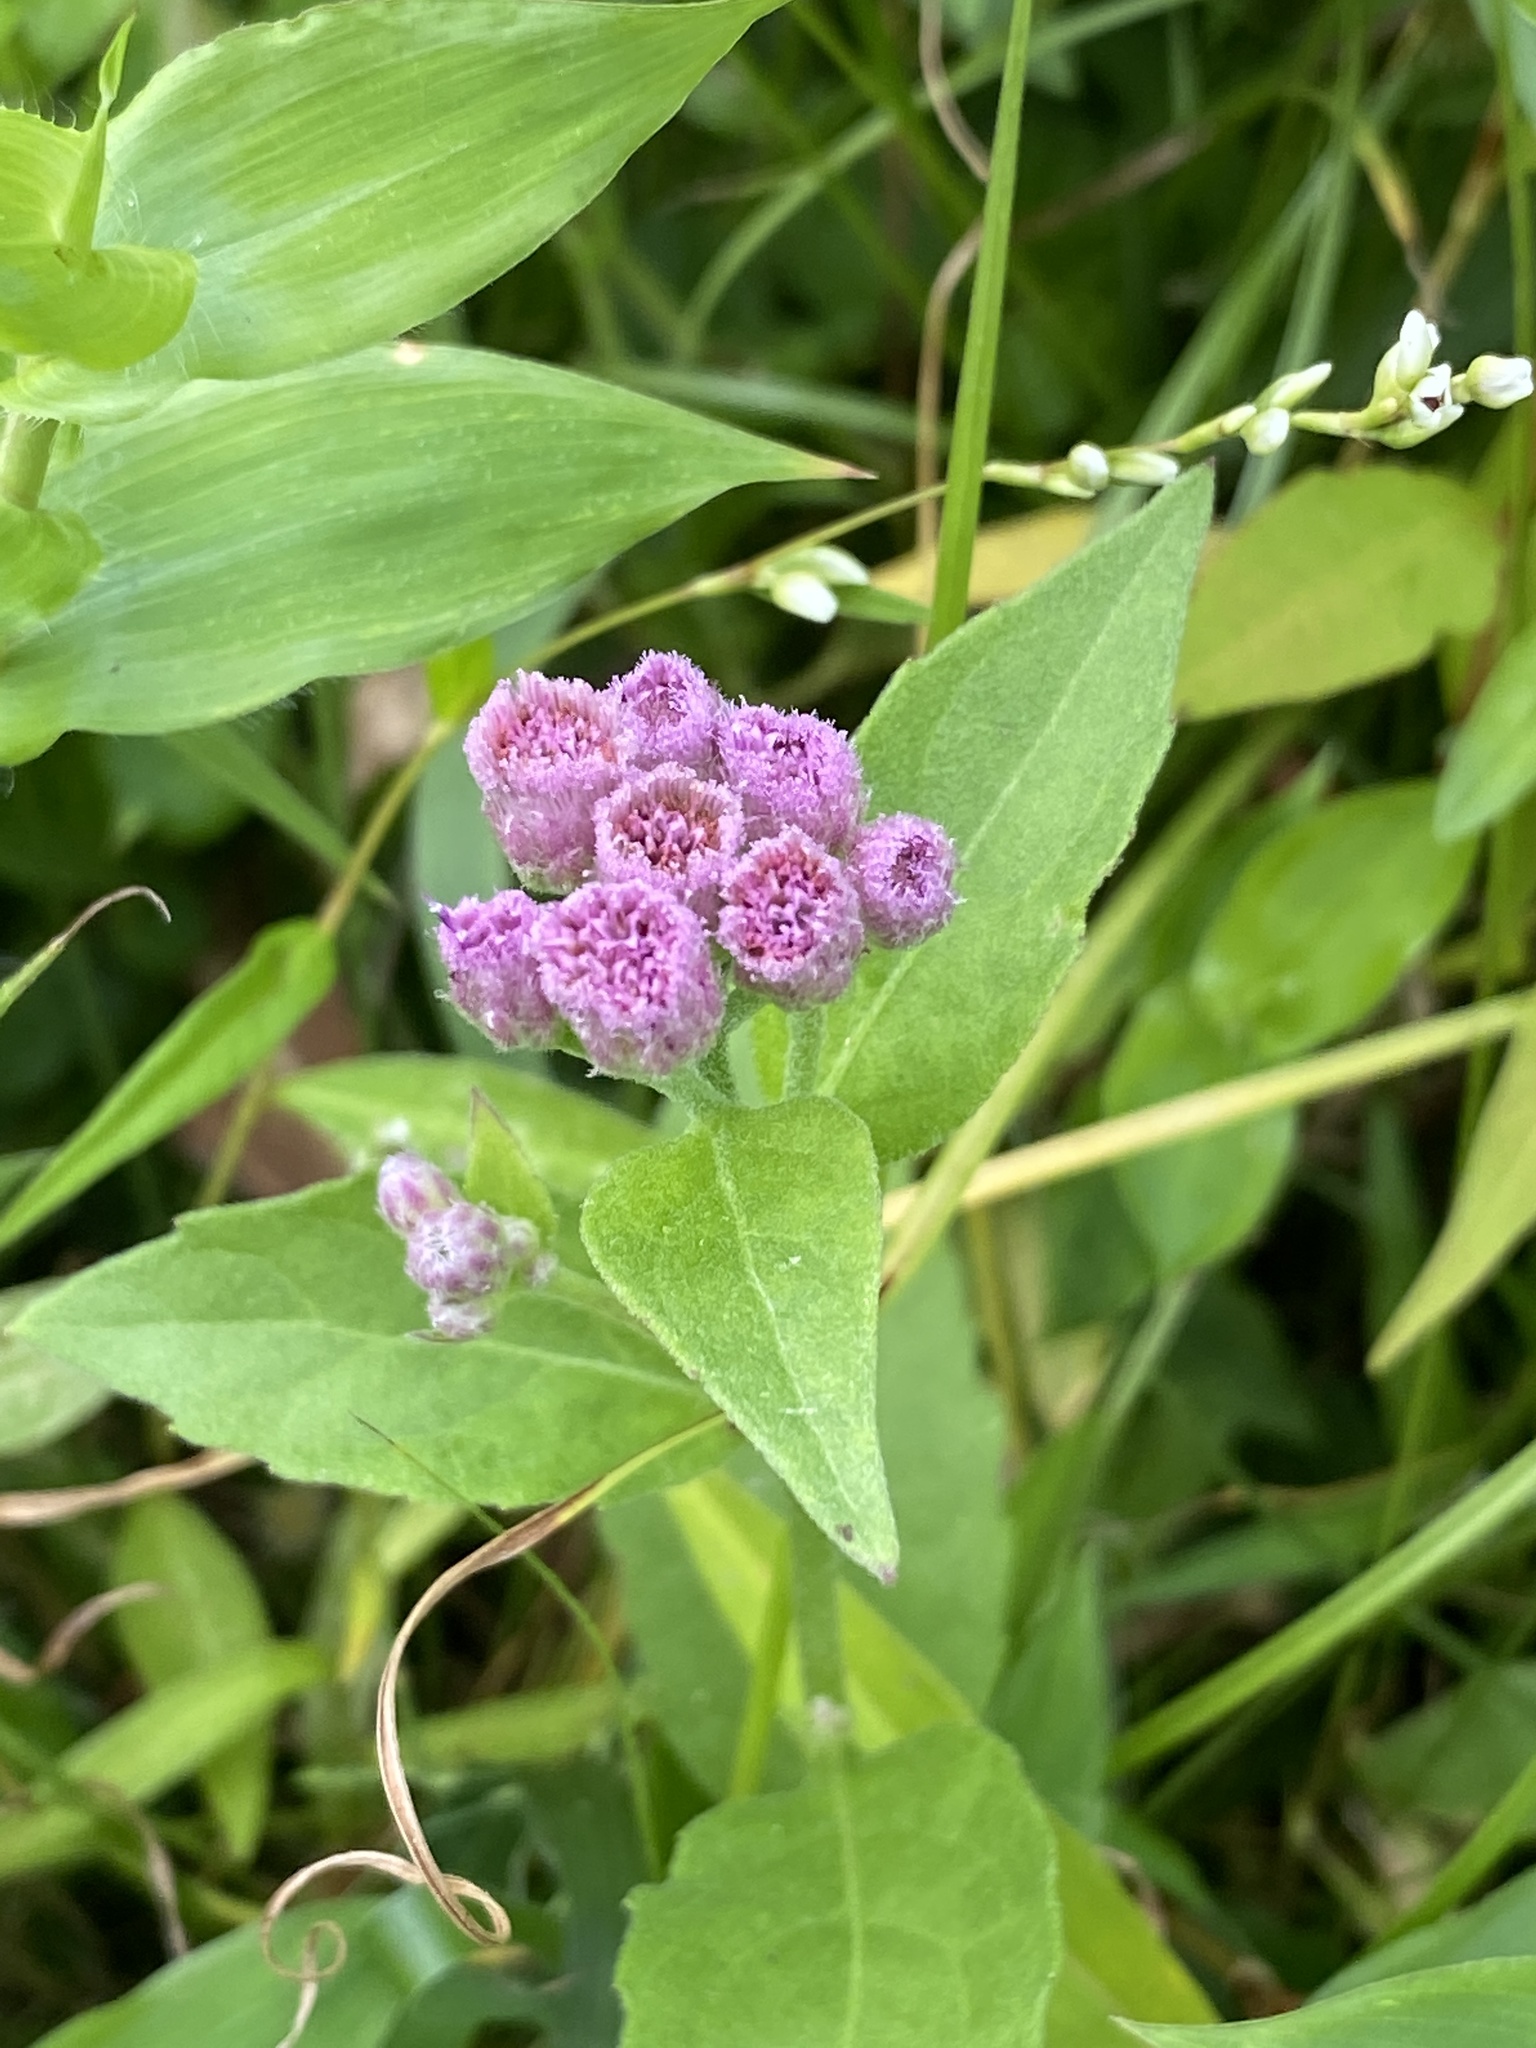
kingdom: Plantae
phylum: Tracheophyta
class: Magnoliopsida
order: Asterales
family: Asteraceae
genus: Pluchea
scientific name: Pluchea odorata
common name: Saltmarsh fleabane
